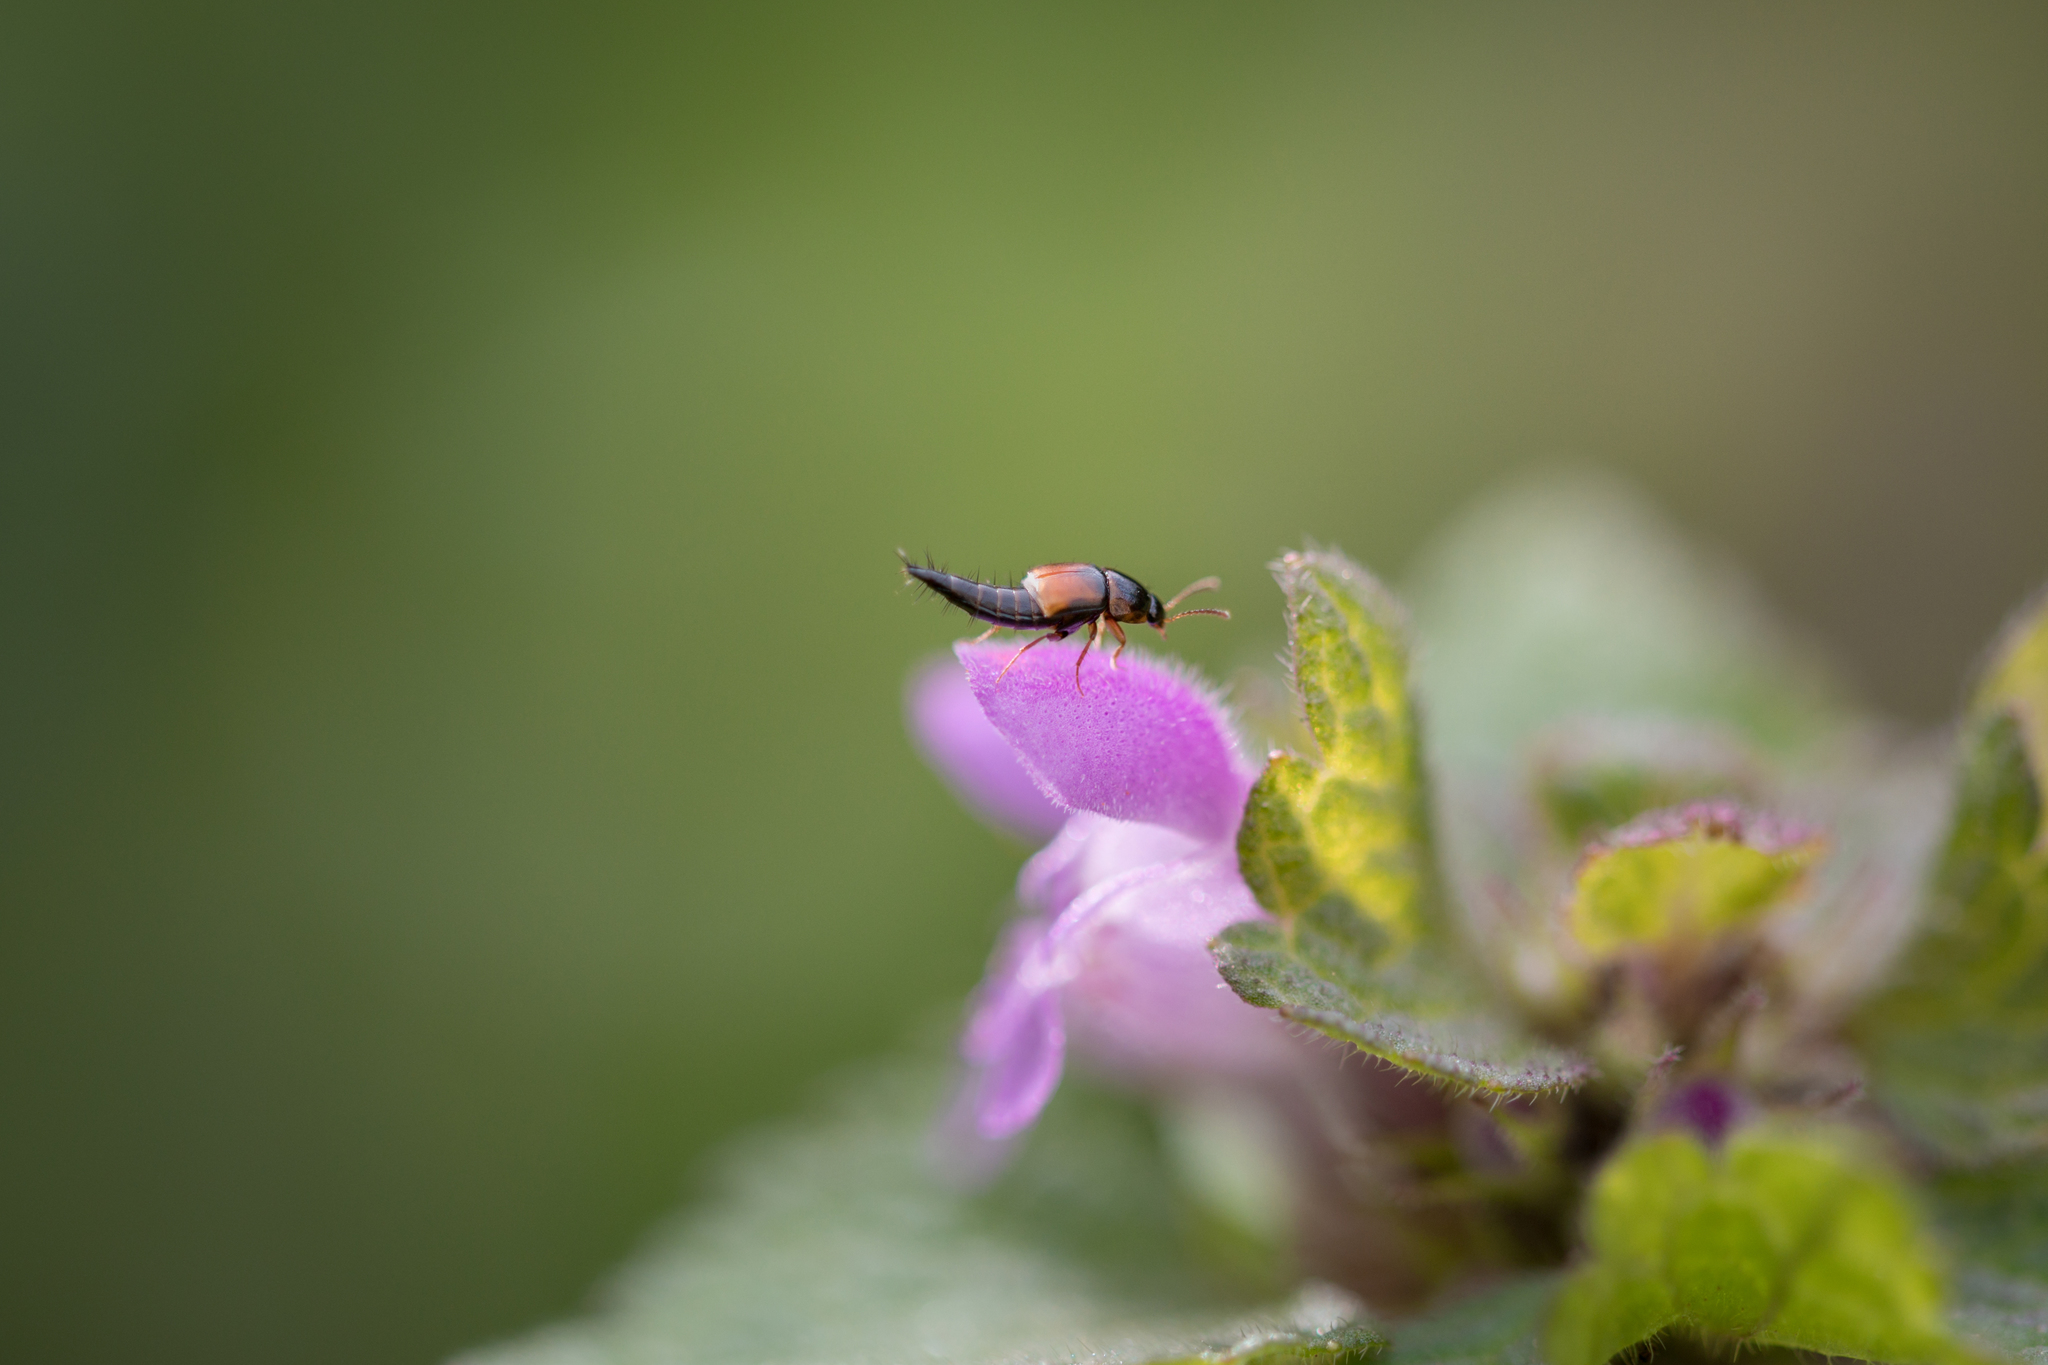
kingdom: Animalia
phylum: Arthropoda
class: Insecta
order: Coleoptera
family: Staphylinidae
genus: Tachyporus
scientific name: Tachyporus hypnorum
